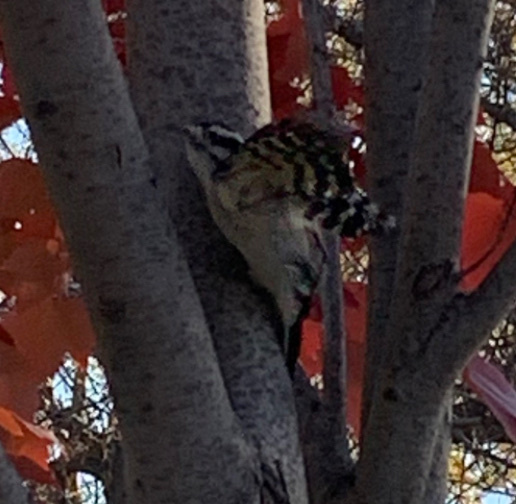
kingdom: Animalia
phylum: Chordata
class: Aves
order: Piciformes
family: Picidae
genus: Dryobates
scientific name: Dryobates pubescens
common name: Downy woodpecker
